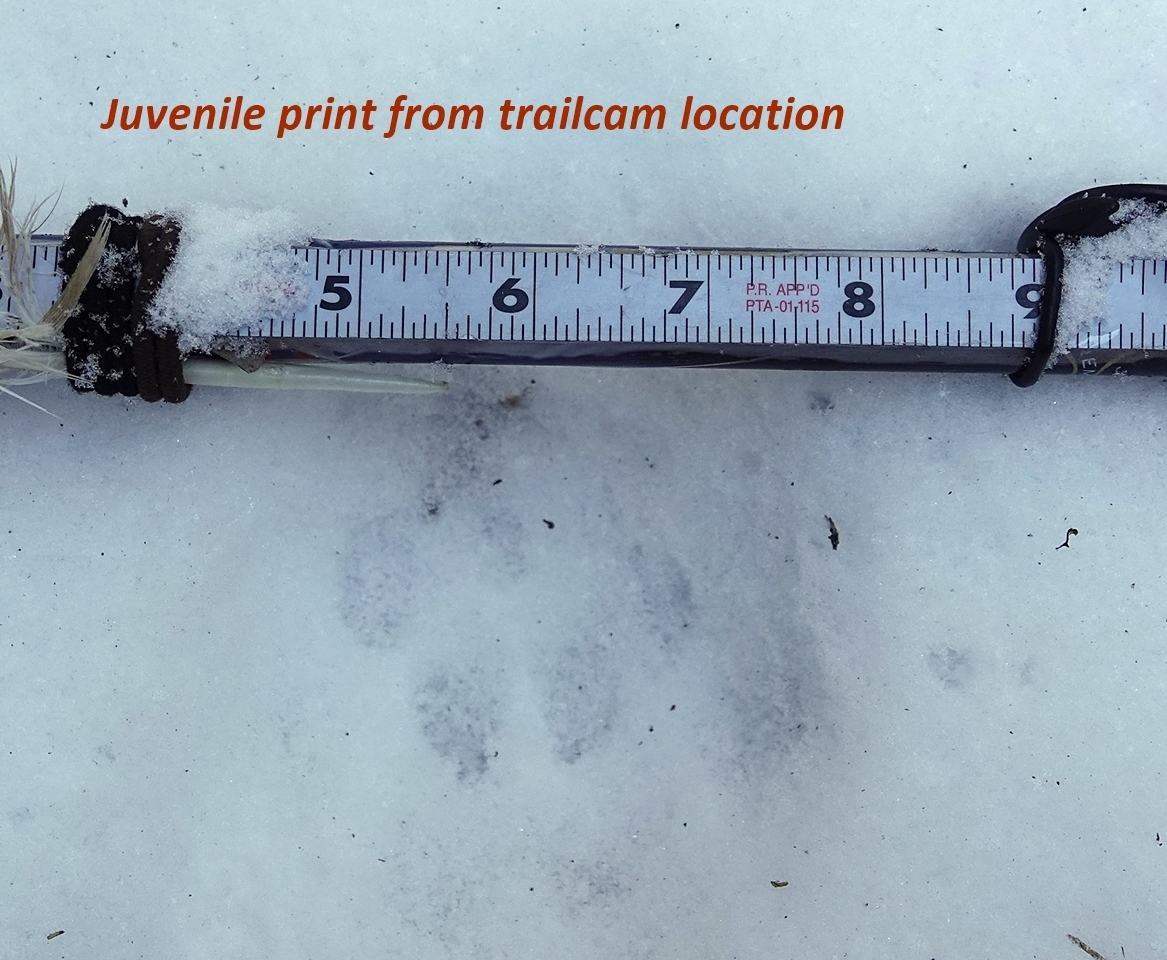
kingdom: Animalia
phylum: Chordata
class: Mammalia
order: Carnivora
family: Felidae
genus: Puma
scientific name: Puma concolor
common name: Puma
